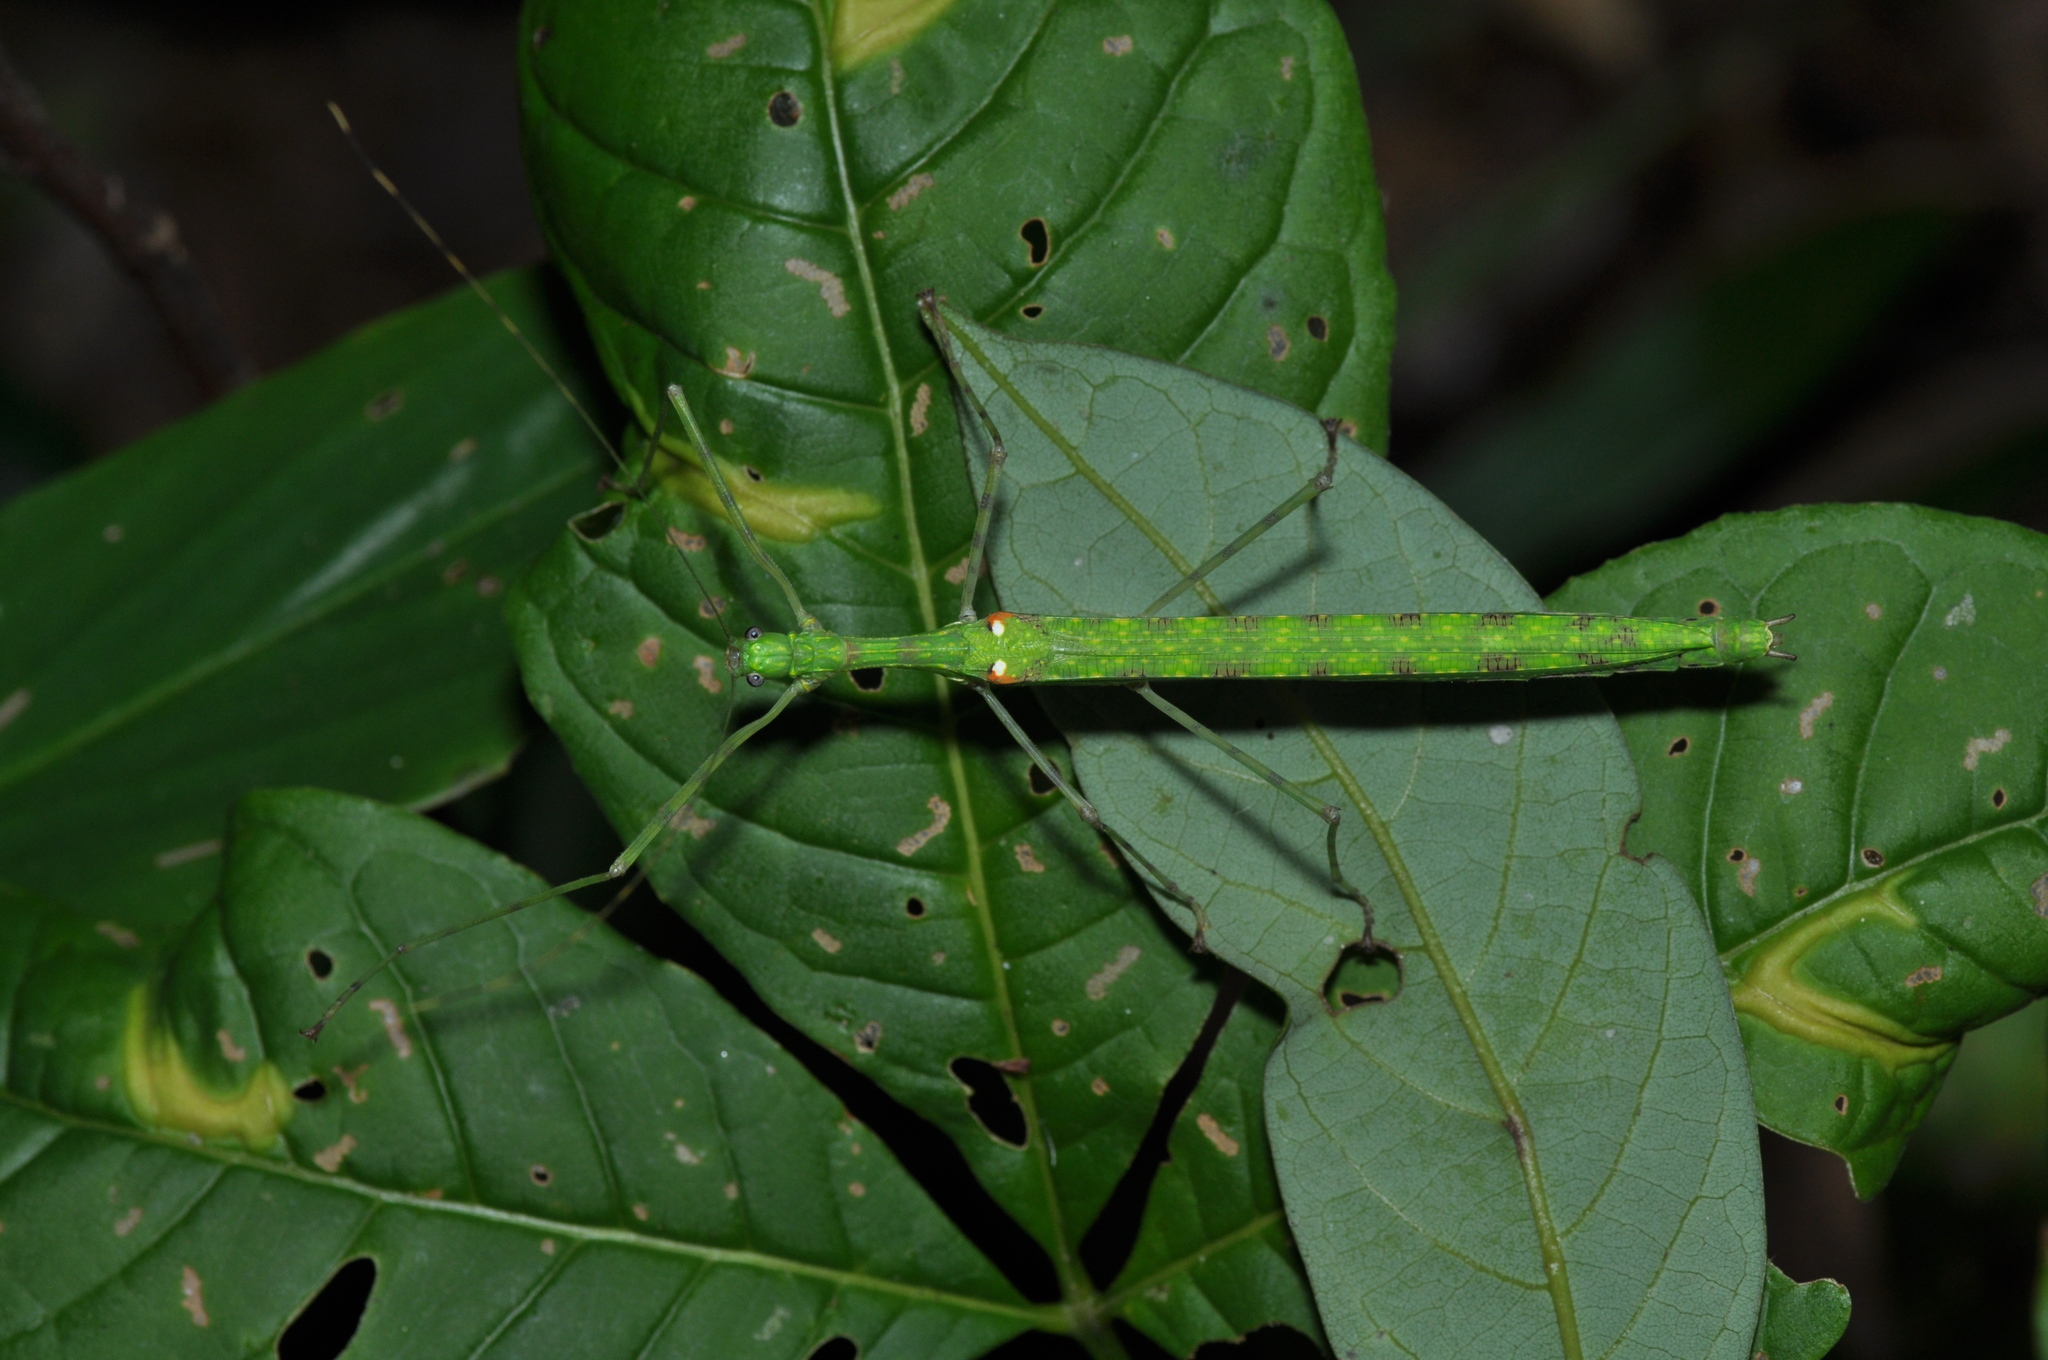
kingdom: Animalia
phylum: Arthropoda
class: Insecta
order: Phasmida
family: Lonchodidae
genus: Necroscia
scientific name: Necroscia sukriadii
